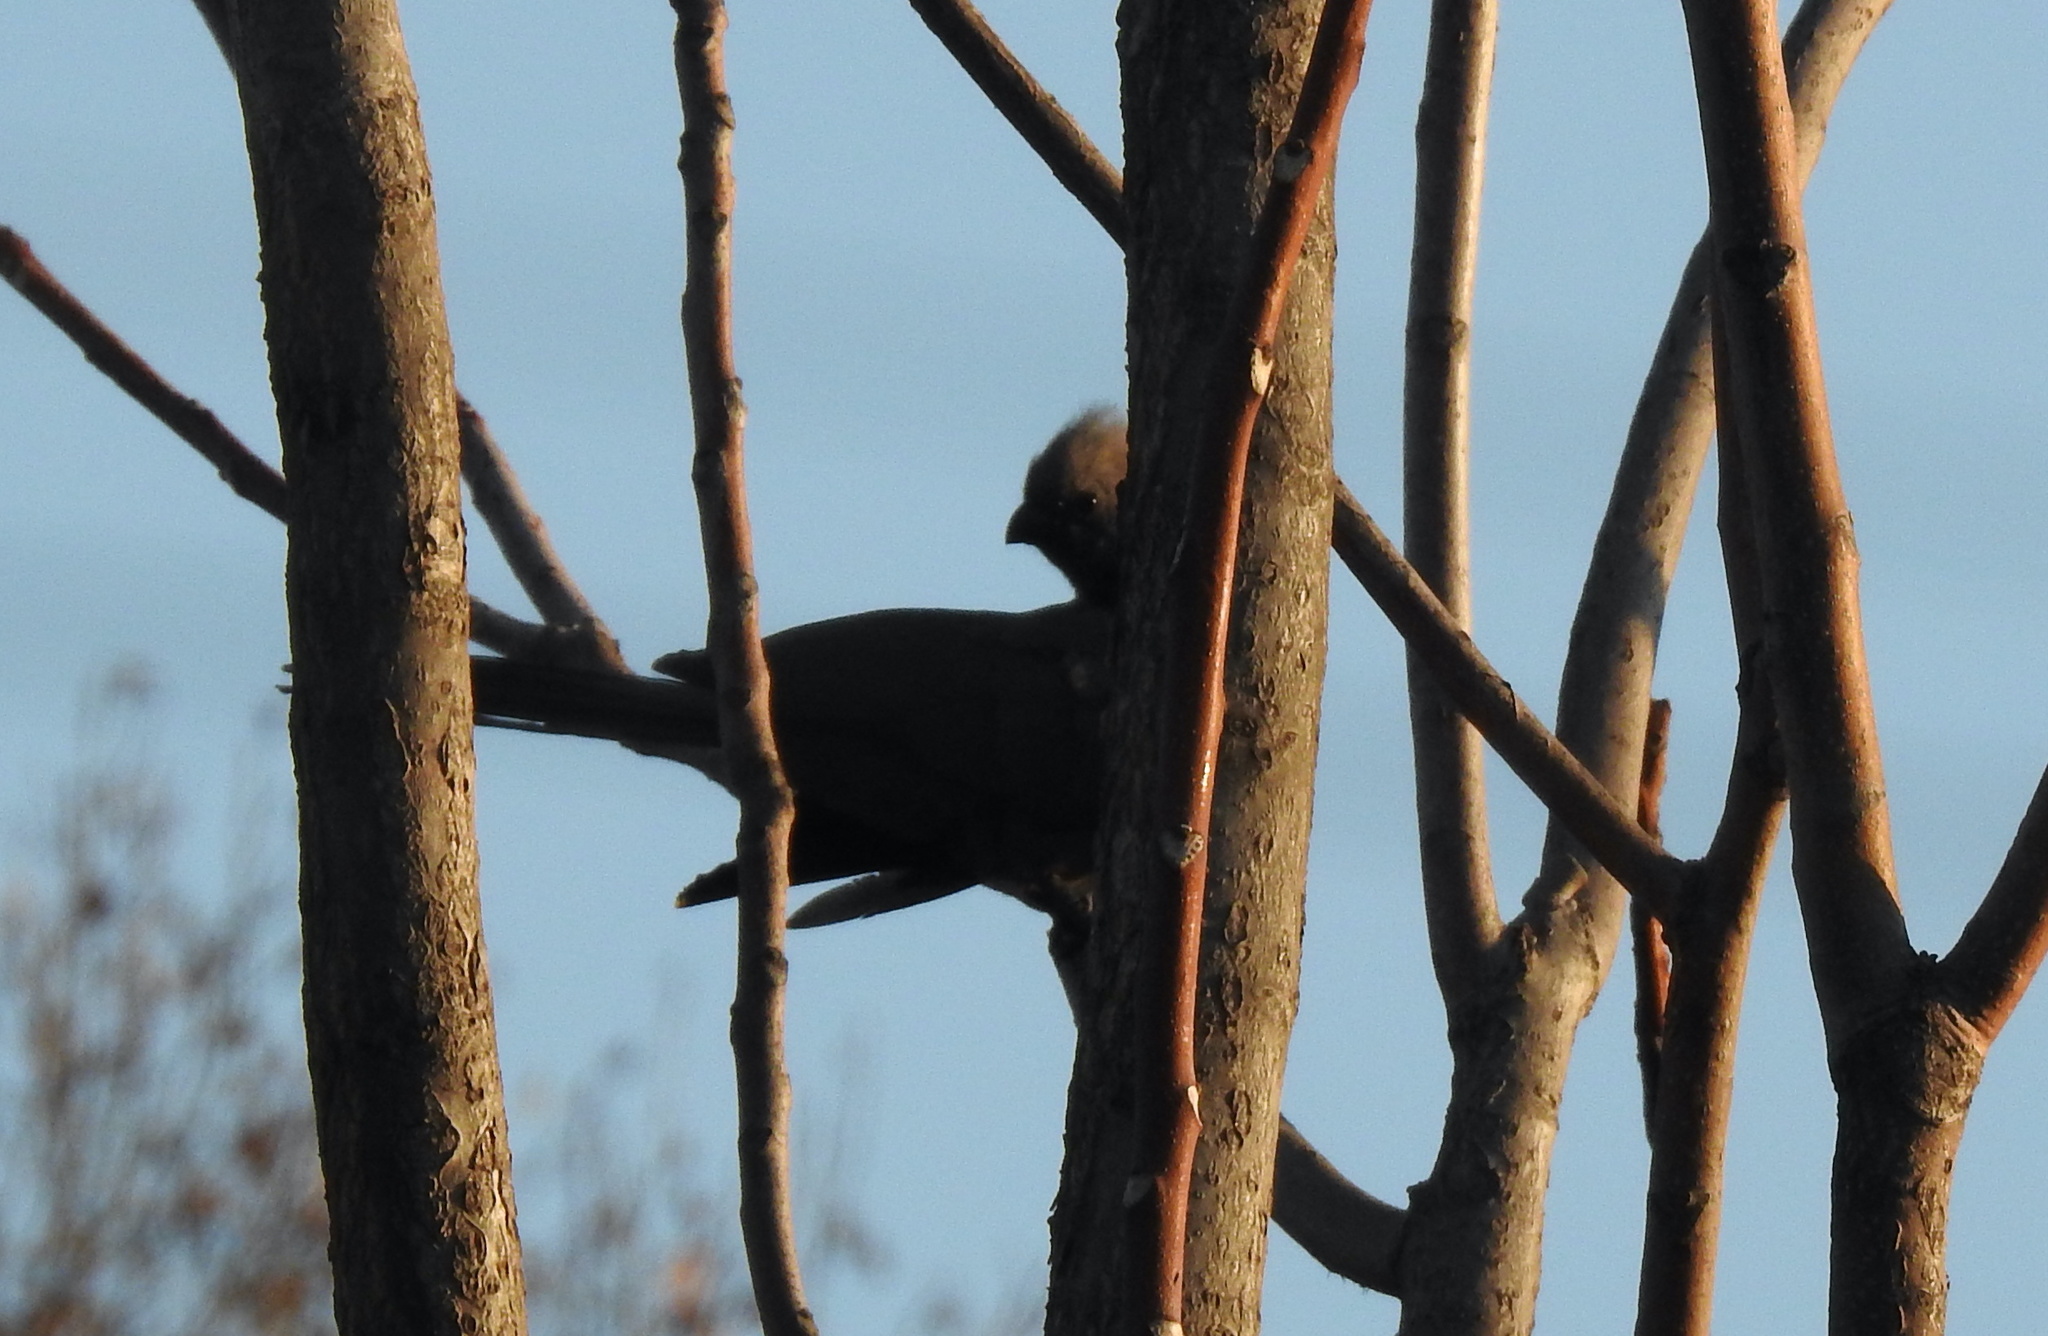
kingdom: Animalia
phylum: Chordata
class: Aves
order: Musophagiformes
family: Musophagidae
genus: Corythaixoides
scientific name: Corythaixoides concolor
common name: Grey go-away-bird
